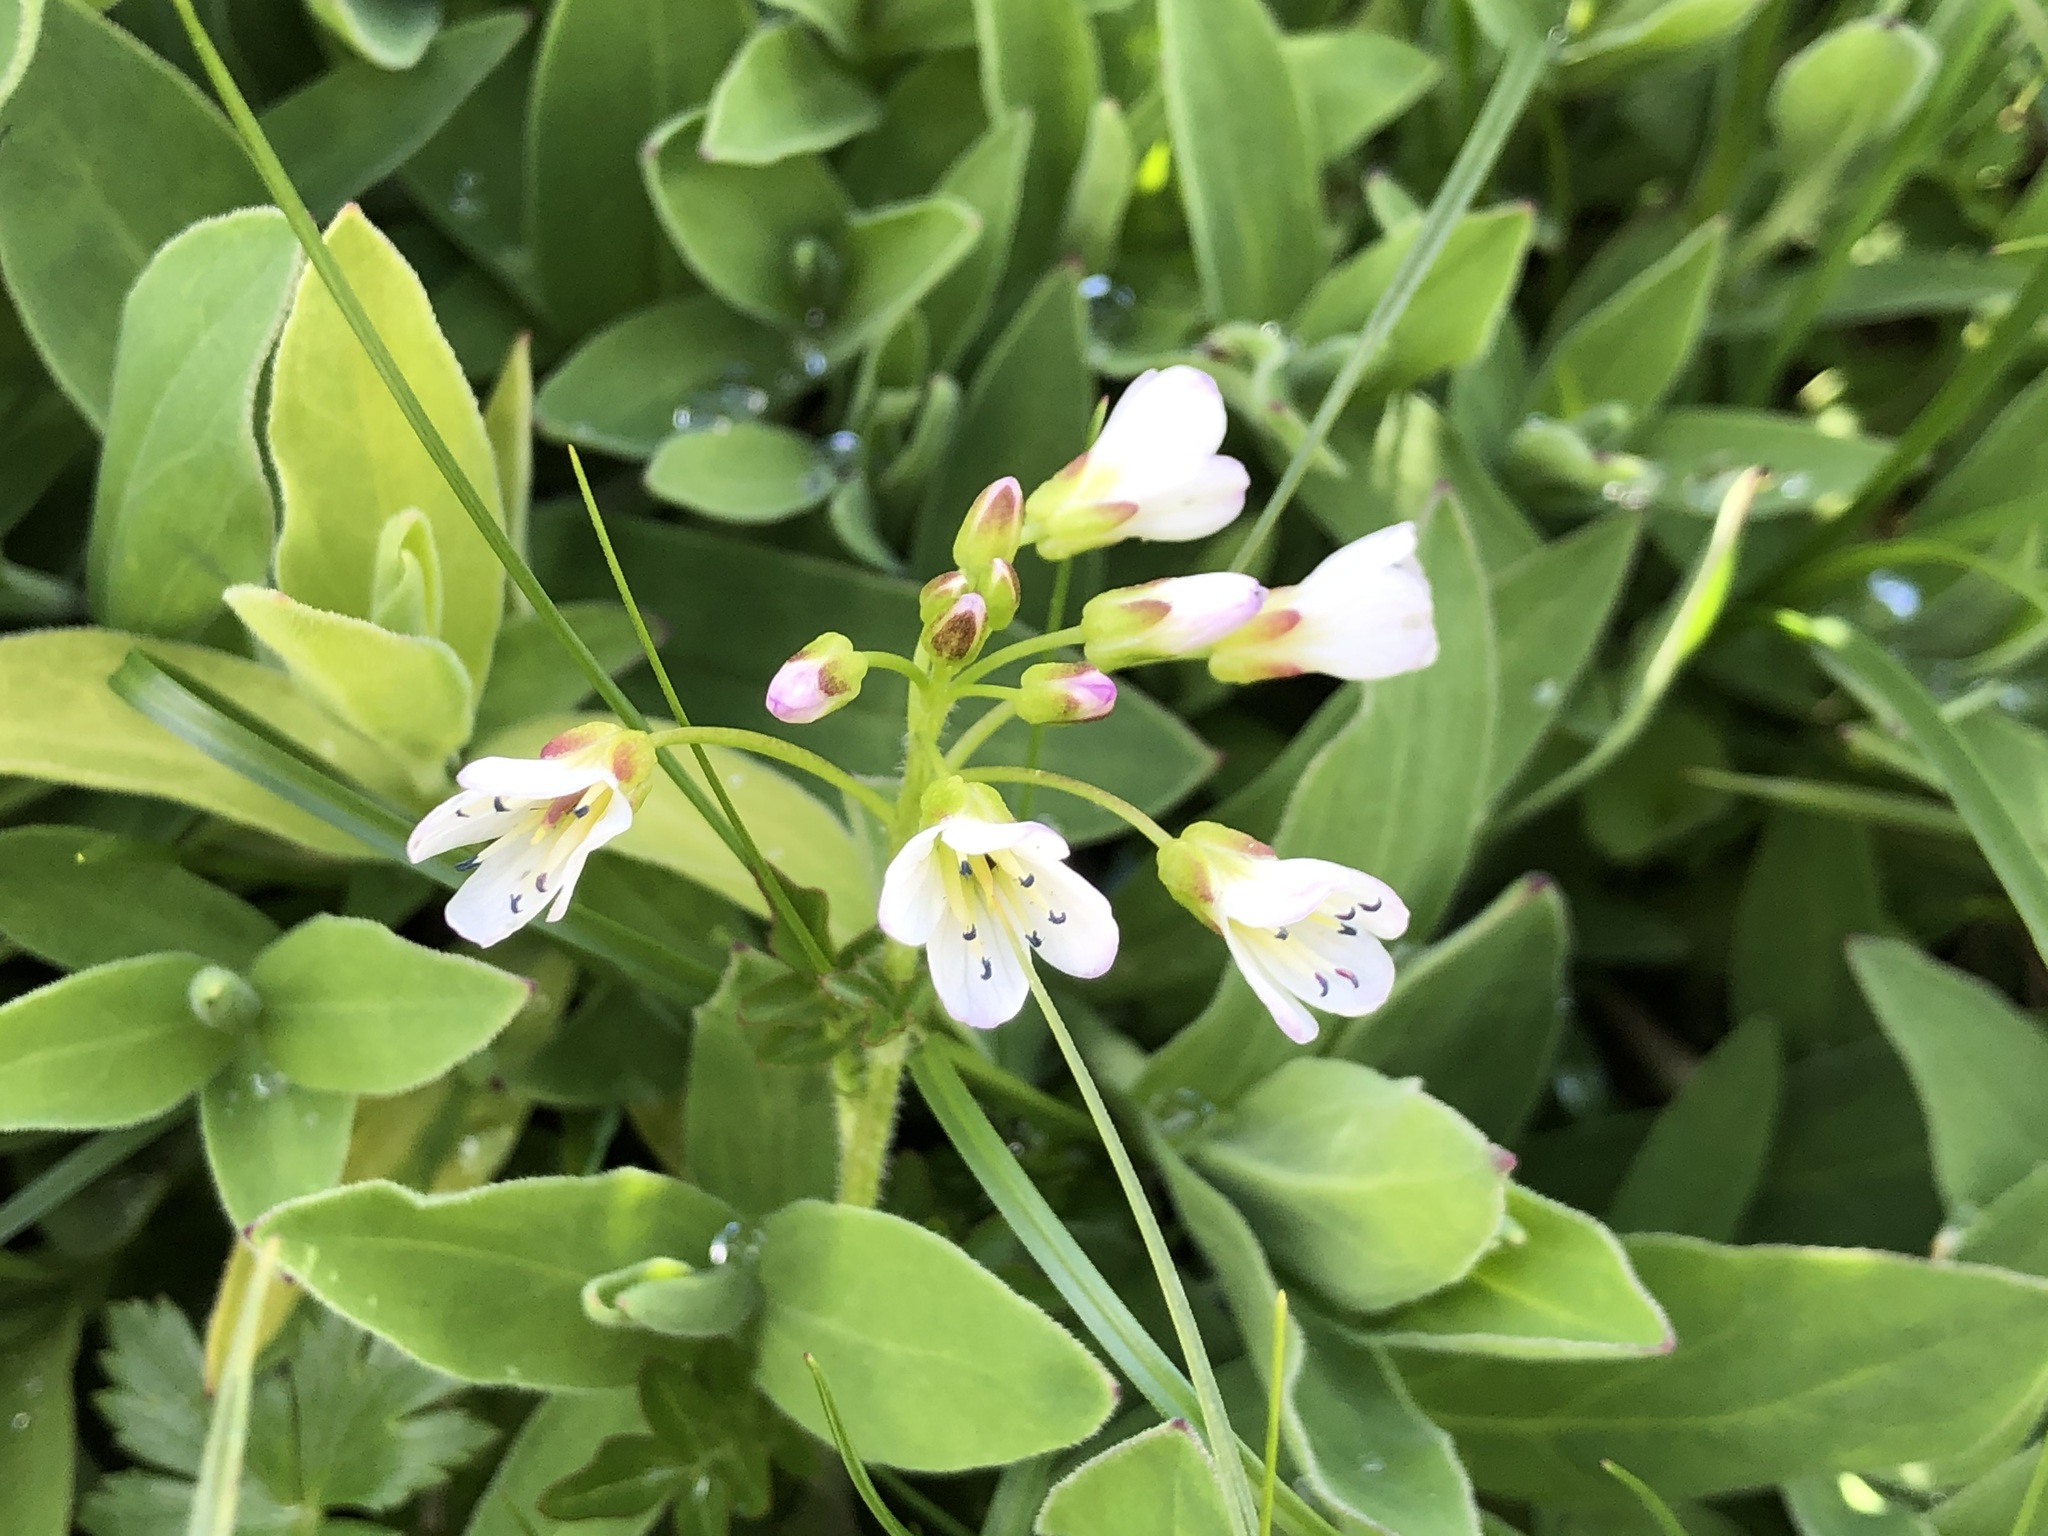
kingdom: Plantae
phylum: Tracheophyta
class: Magnoliopsida
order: Brassicales
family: Brassicaceae
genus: Cardamine
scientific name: Cardamine amara
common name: Large bitter-cress
